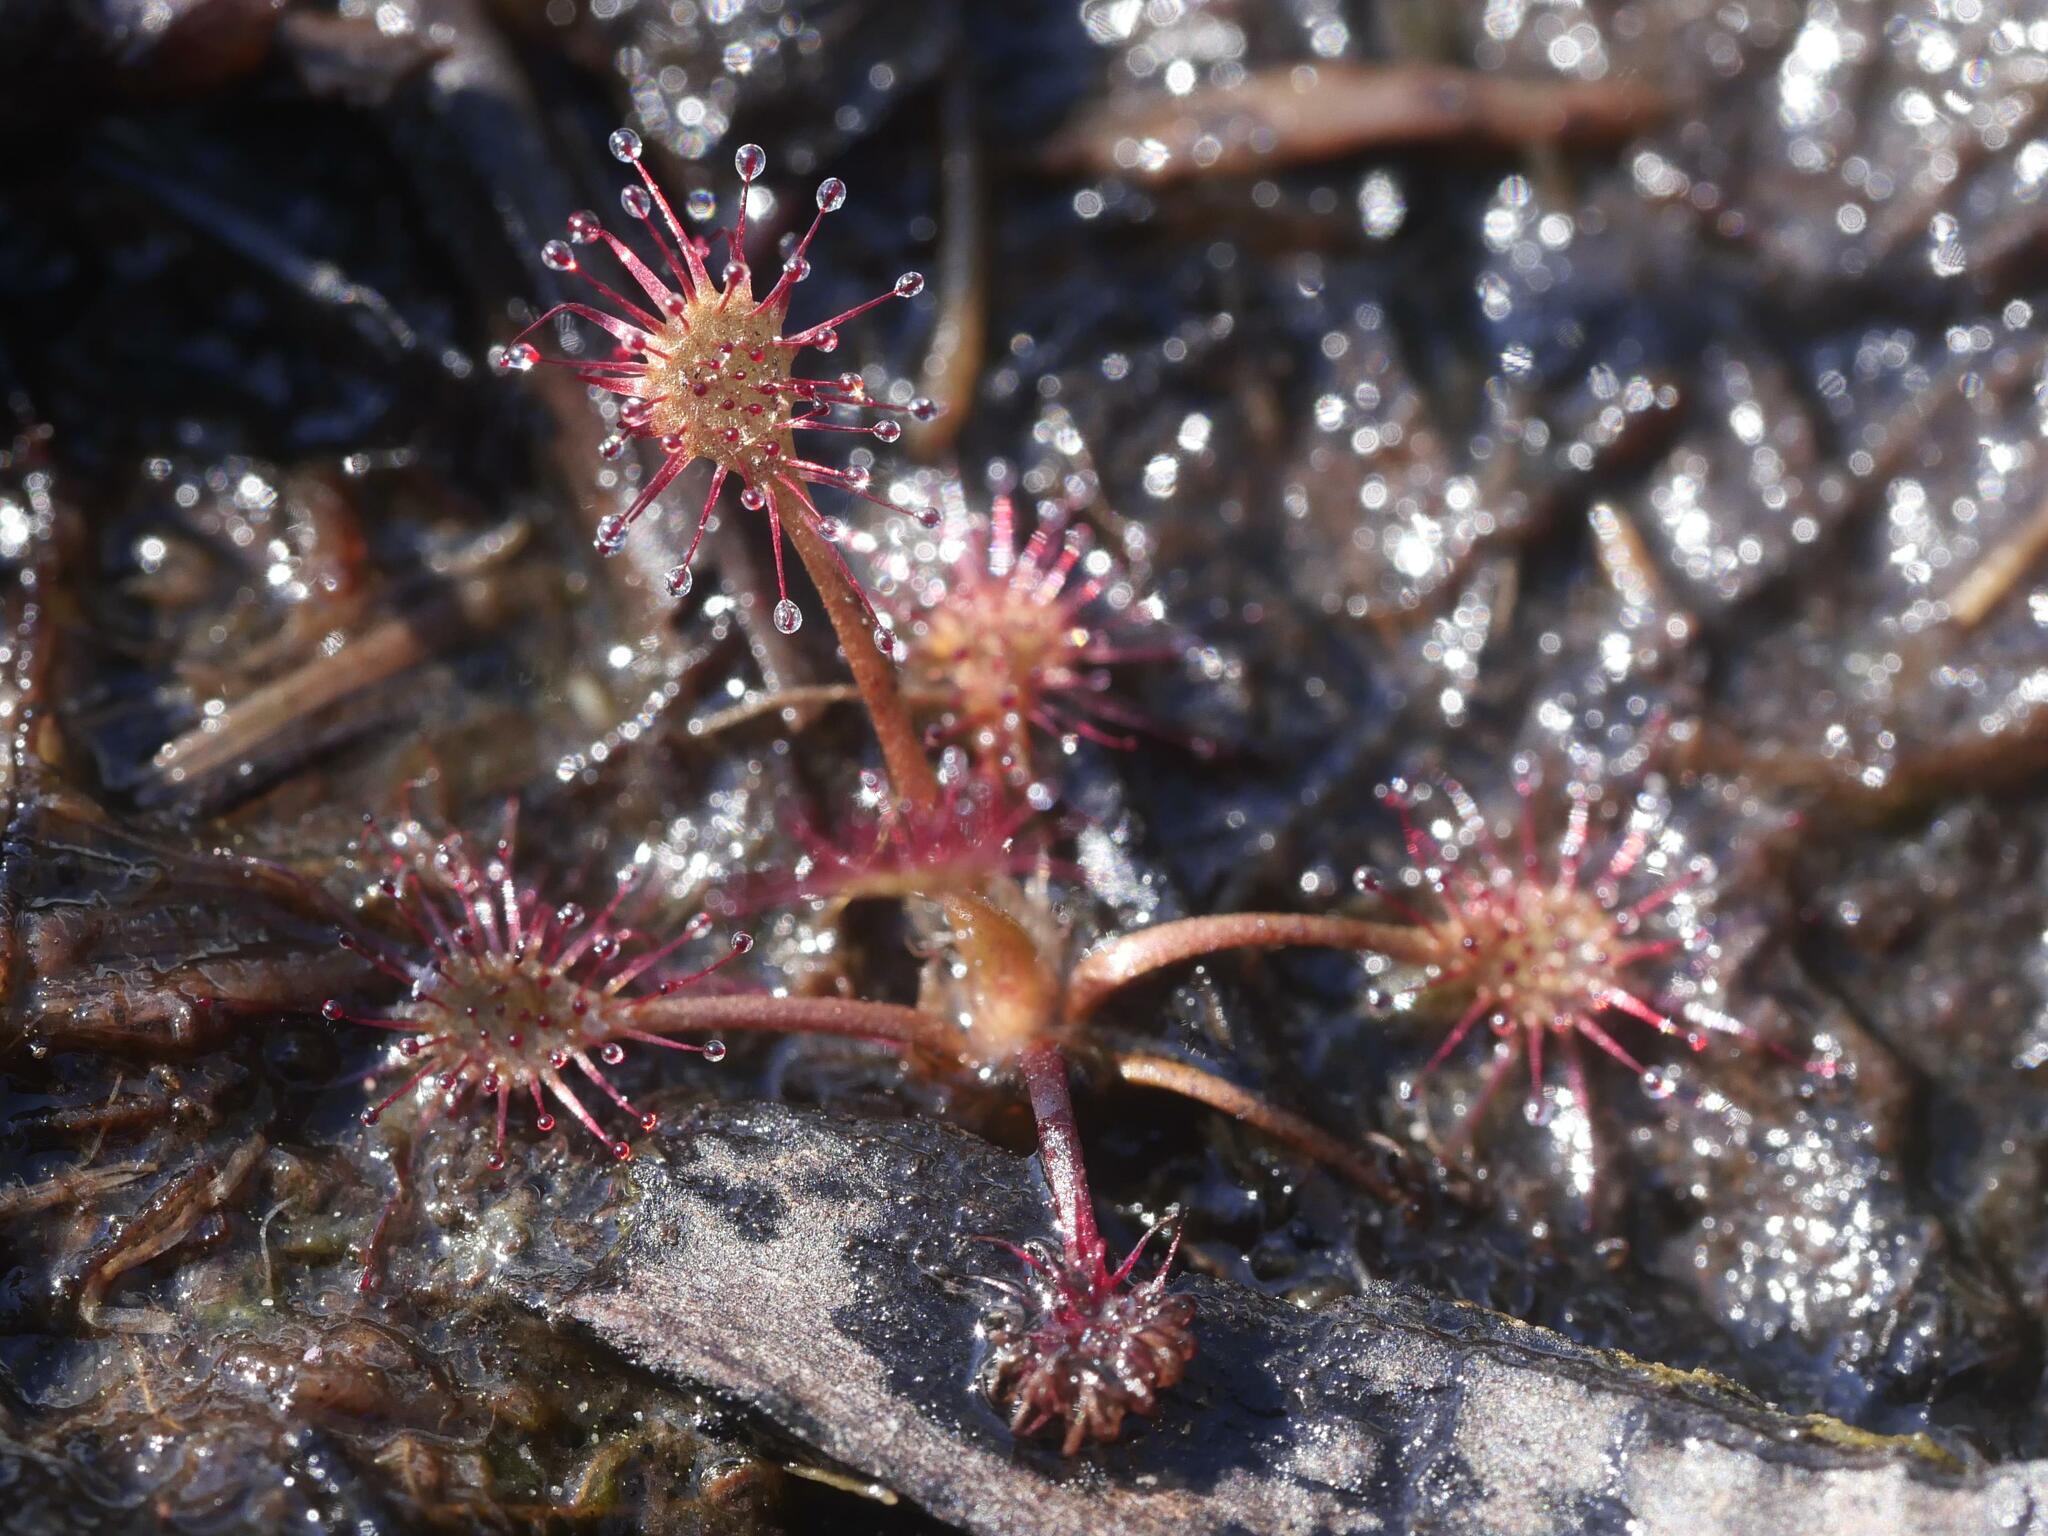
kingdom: Plantae
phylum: Tracheophyta
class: Magnoliopsida
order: Caryophyllales
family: Droseraceae
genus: Drosera
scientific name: Drosera intermedia
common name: Oblong-leaved sundew
